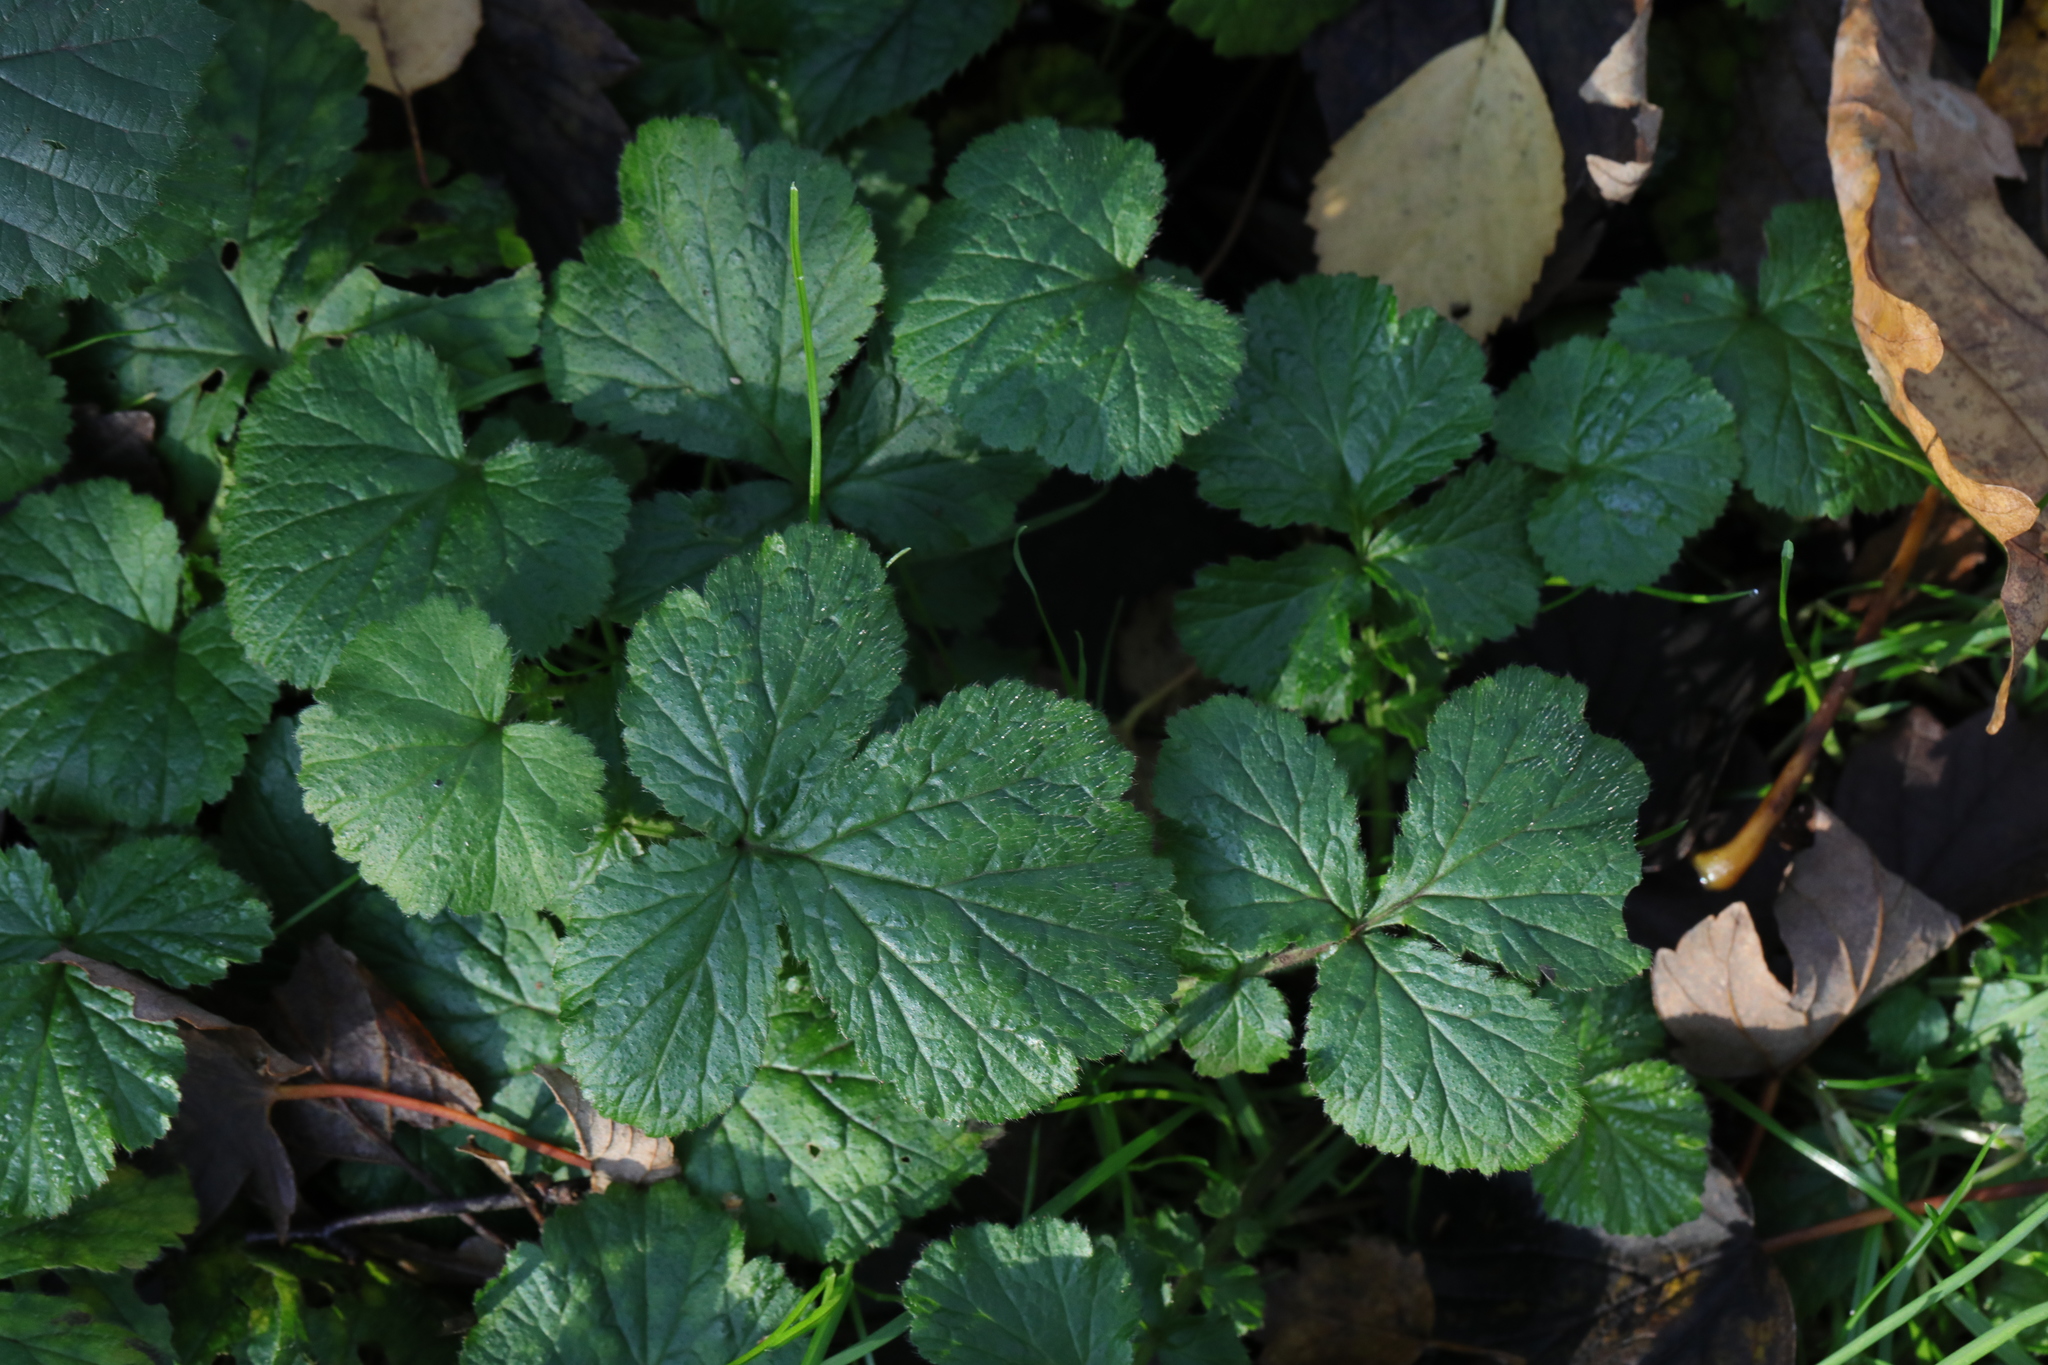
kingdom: Plantae
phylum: Tracheophyta
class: Magnoliopsida
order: Rosales
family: Rosaceae
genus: Geum
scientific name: Geum urbanum
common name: Wood avens
